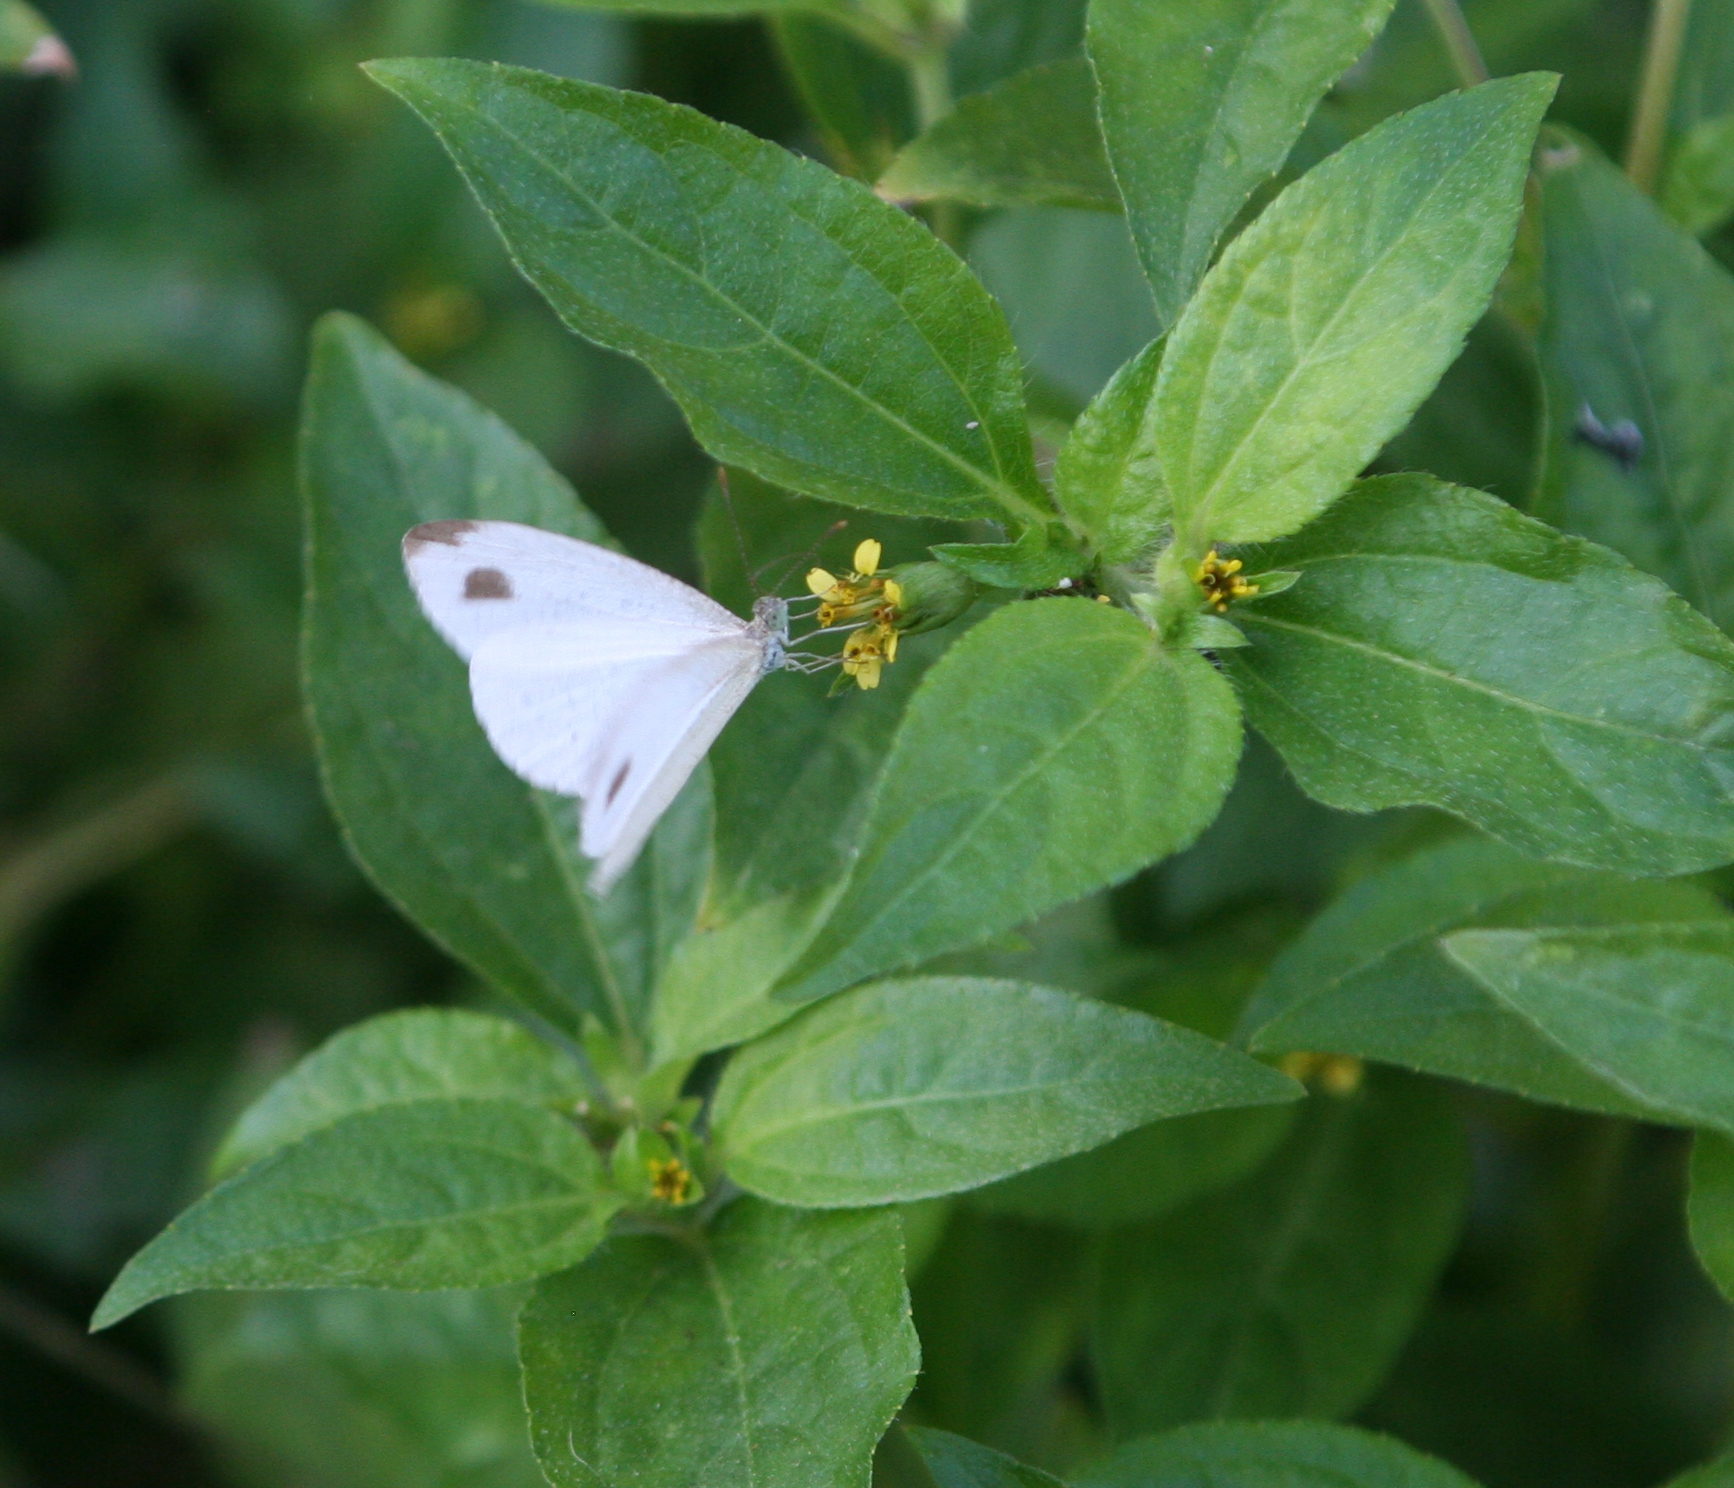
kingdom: Animalia
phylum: Arthropoda
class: Insecta
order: Lepidoptera
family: Pieridae
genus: Leptosia
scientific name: Leptosia nina
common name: Psyche
